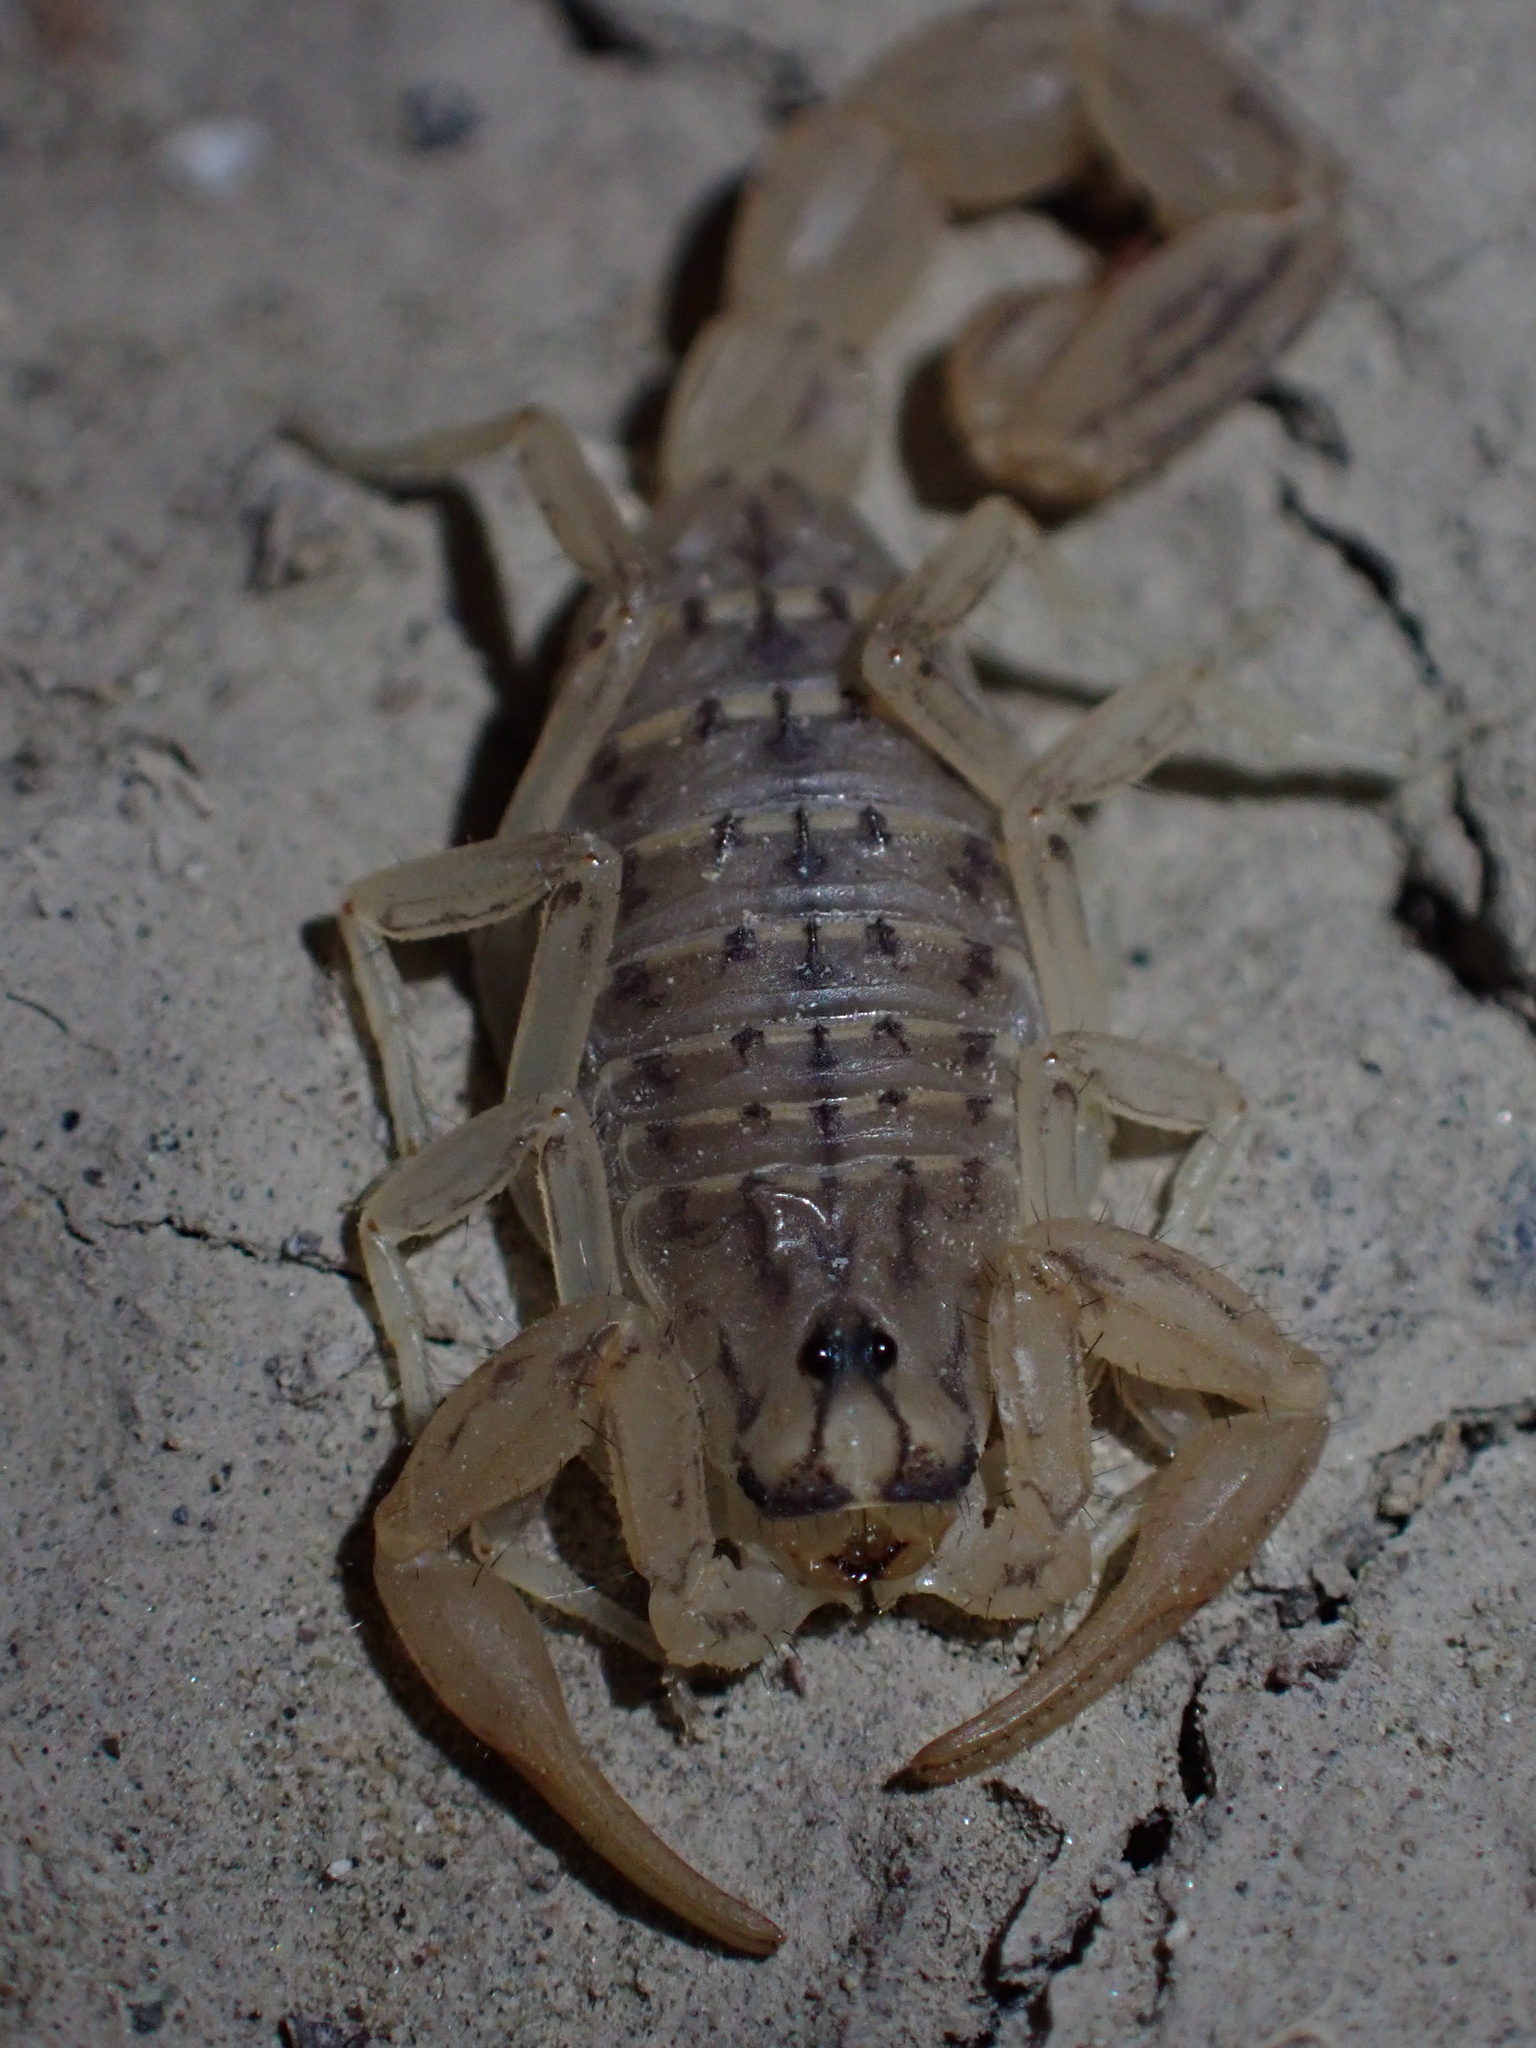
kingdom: Animalia
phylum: Arthropoda
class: Arachnida
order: Scorpiones
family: Buthidae
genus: Mesobuthus
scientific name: Mesobuthus mirshamsii
